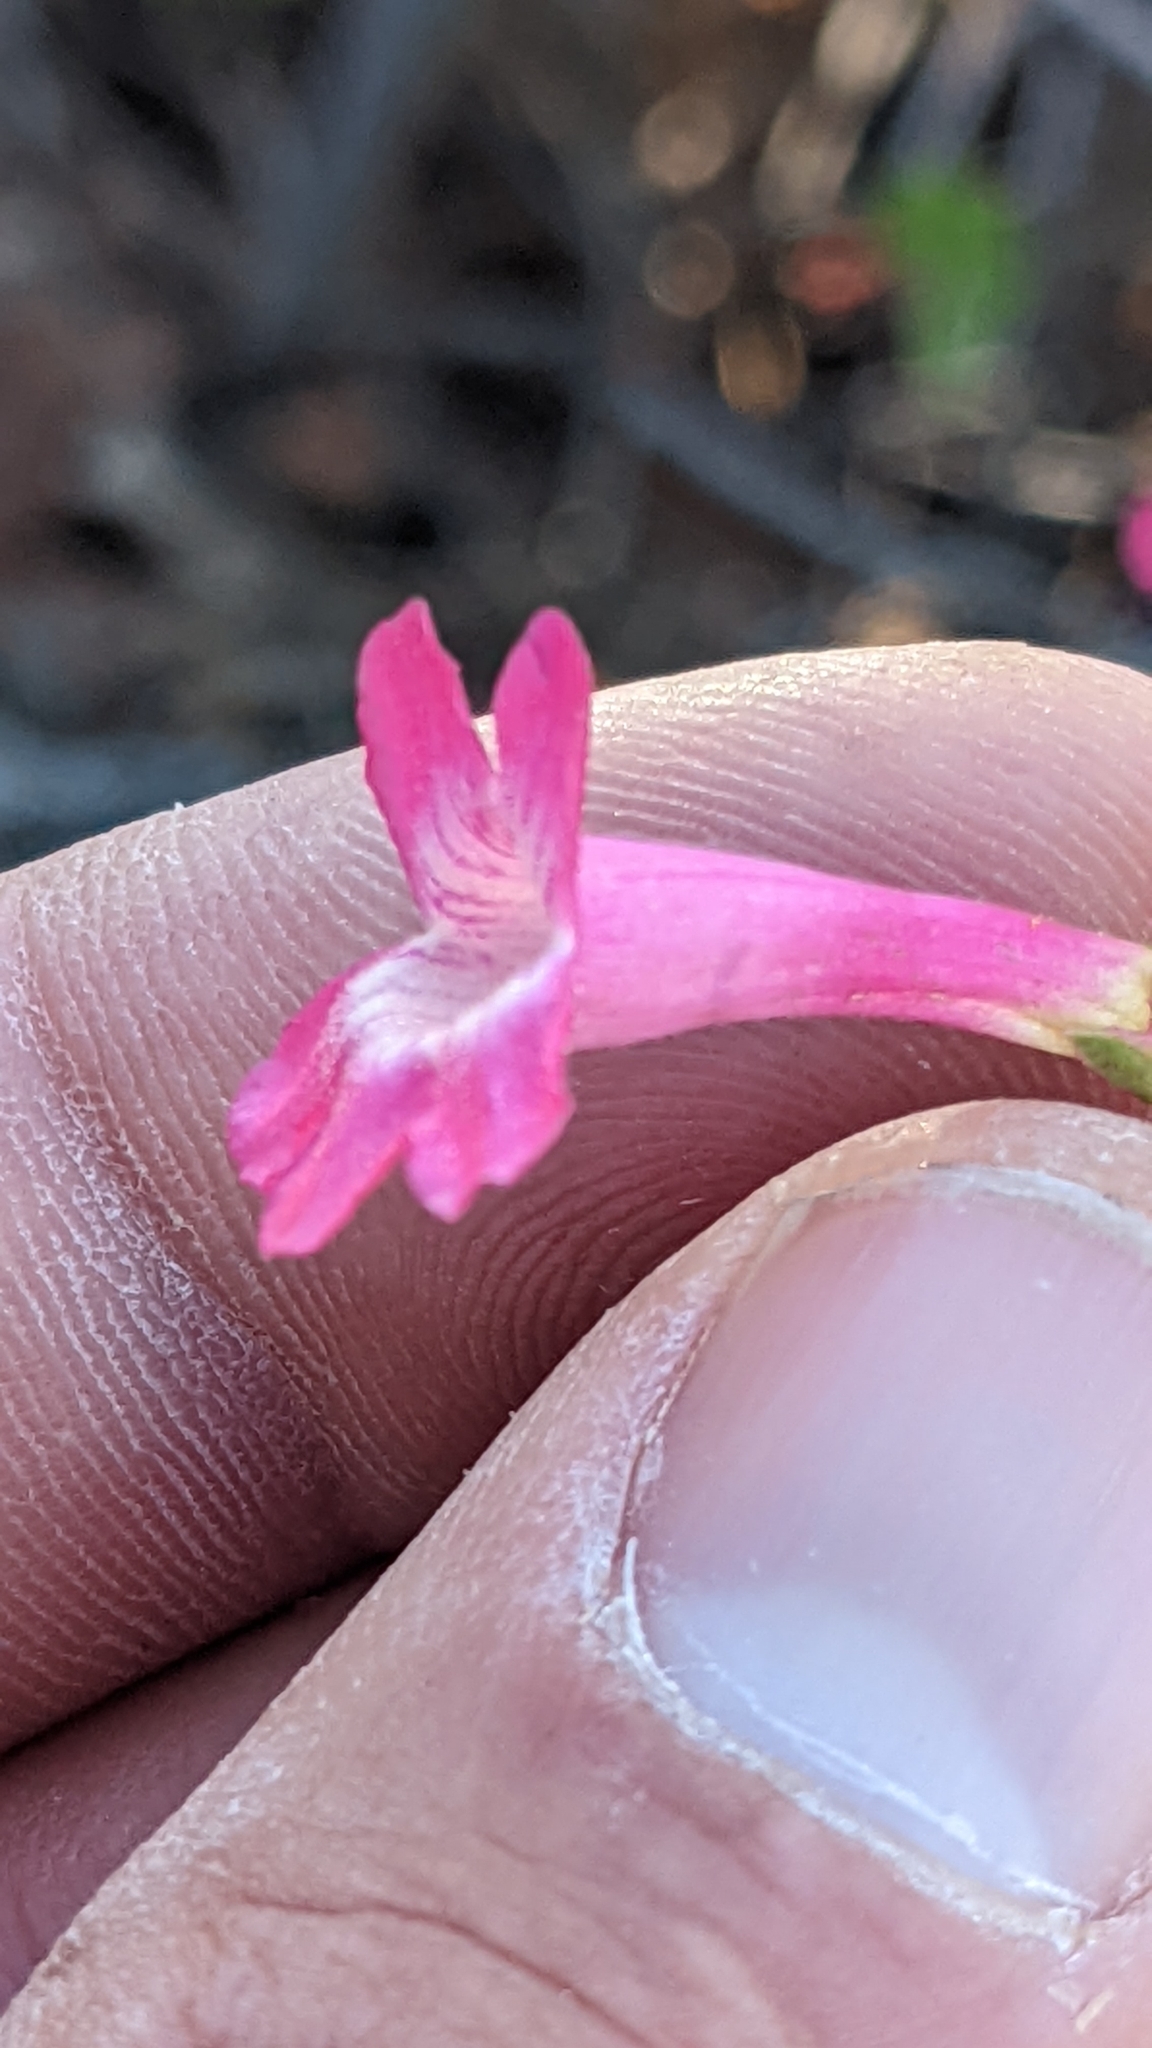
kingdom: Plantae
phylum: Tracheophyta
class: Magnoliopsida
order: Lamiales
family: Plantaginaceae
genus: Penstemon
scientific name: Penstemon confusus
